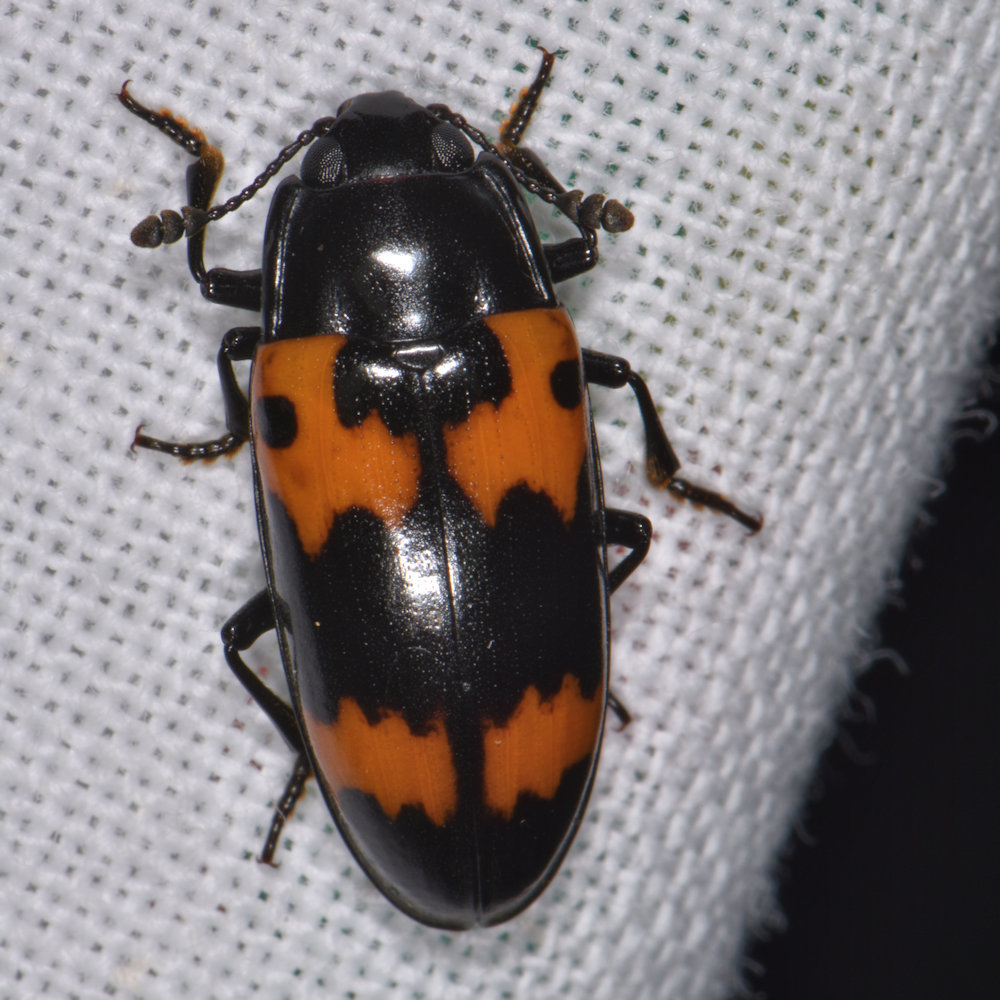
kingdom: Animalia
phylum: Arthropoda
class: Insecta
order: Coleoptera
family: Erotylidae
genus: Megalodacne
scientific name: Megalodacne fasciata
